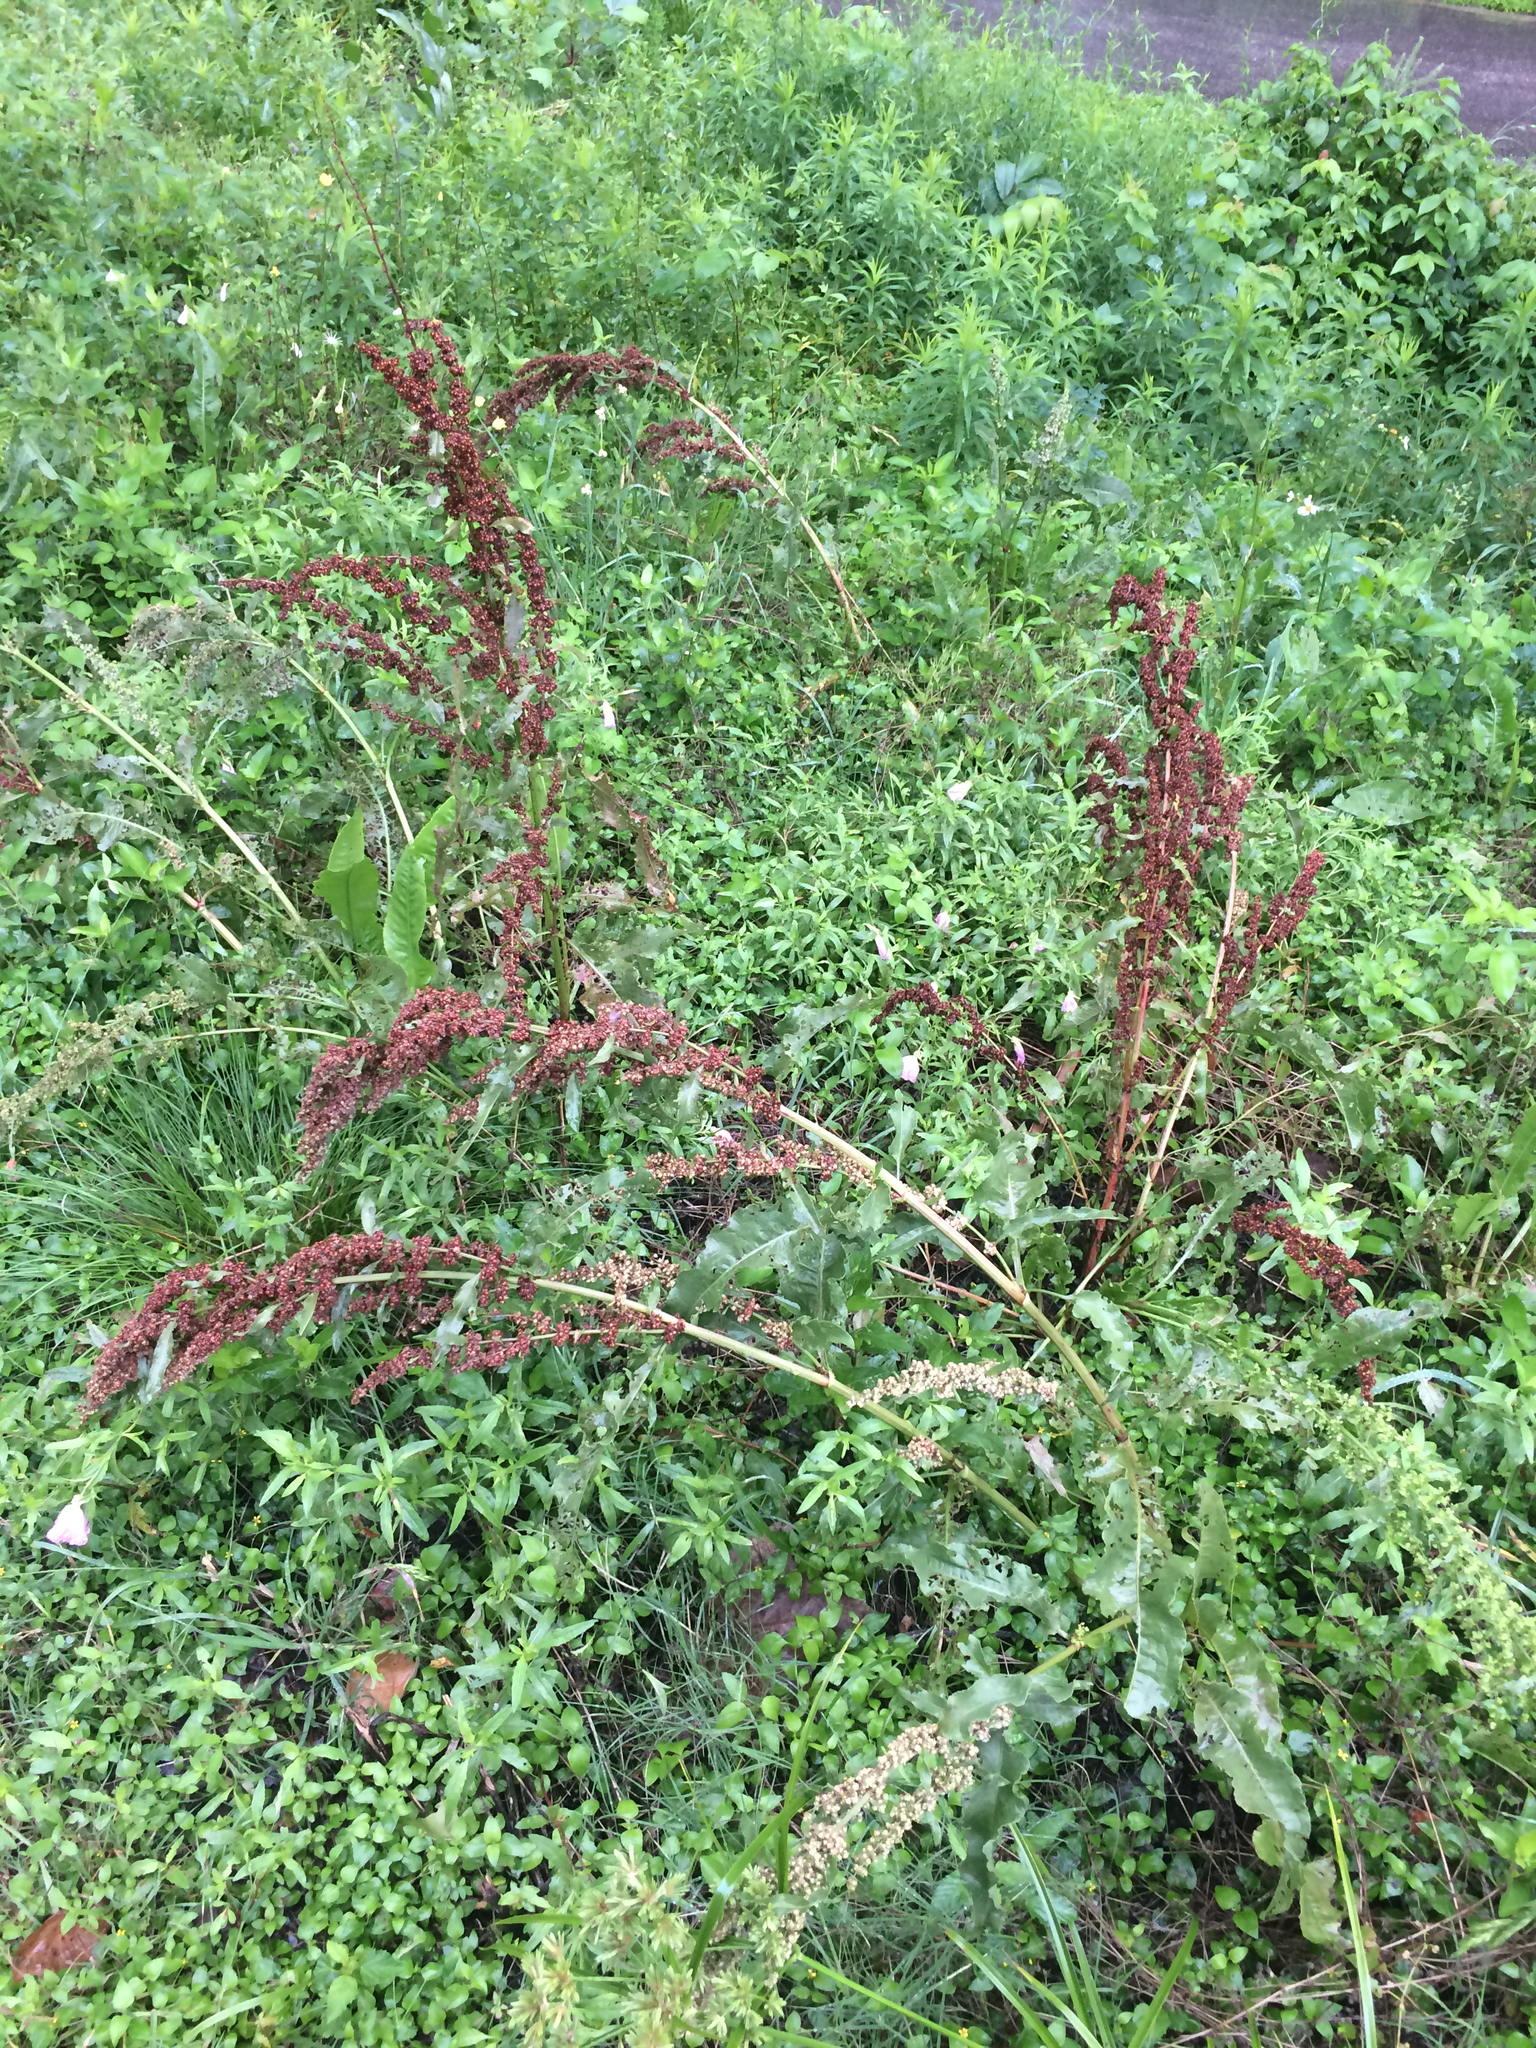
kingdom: Plantae
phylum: Tracheophyta
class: Magnoliopsida
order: Caryophyllales
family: Polygonaceae
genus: Rumex
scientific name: Rumex crispus
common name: Curled dock
